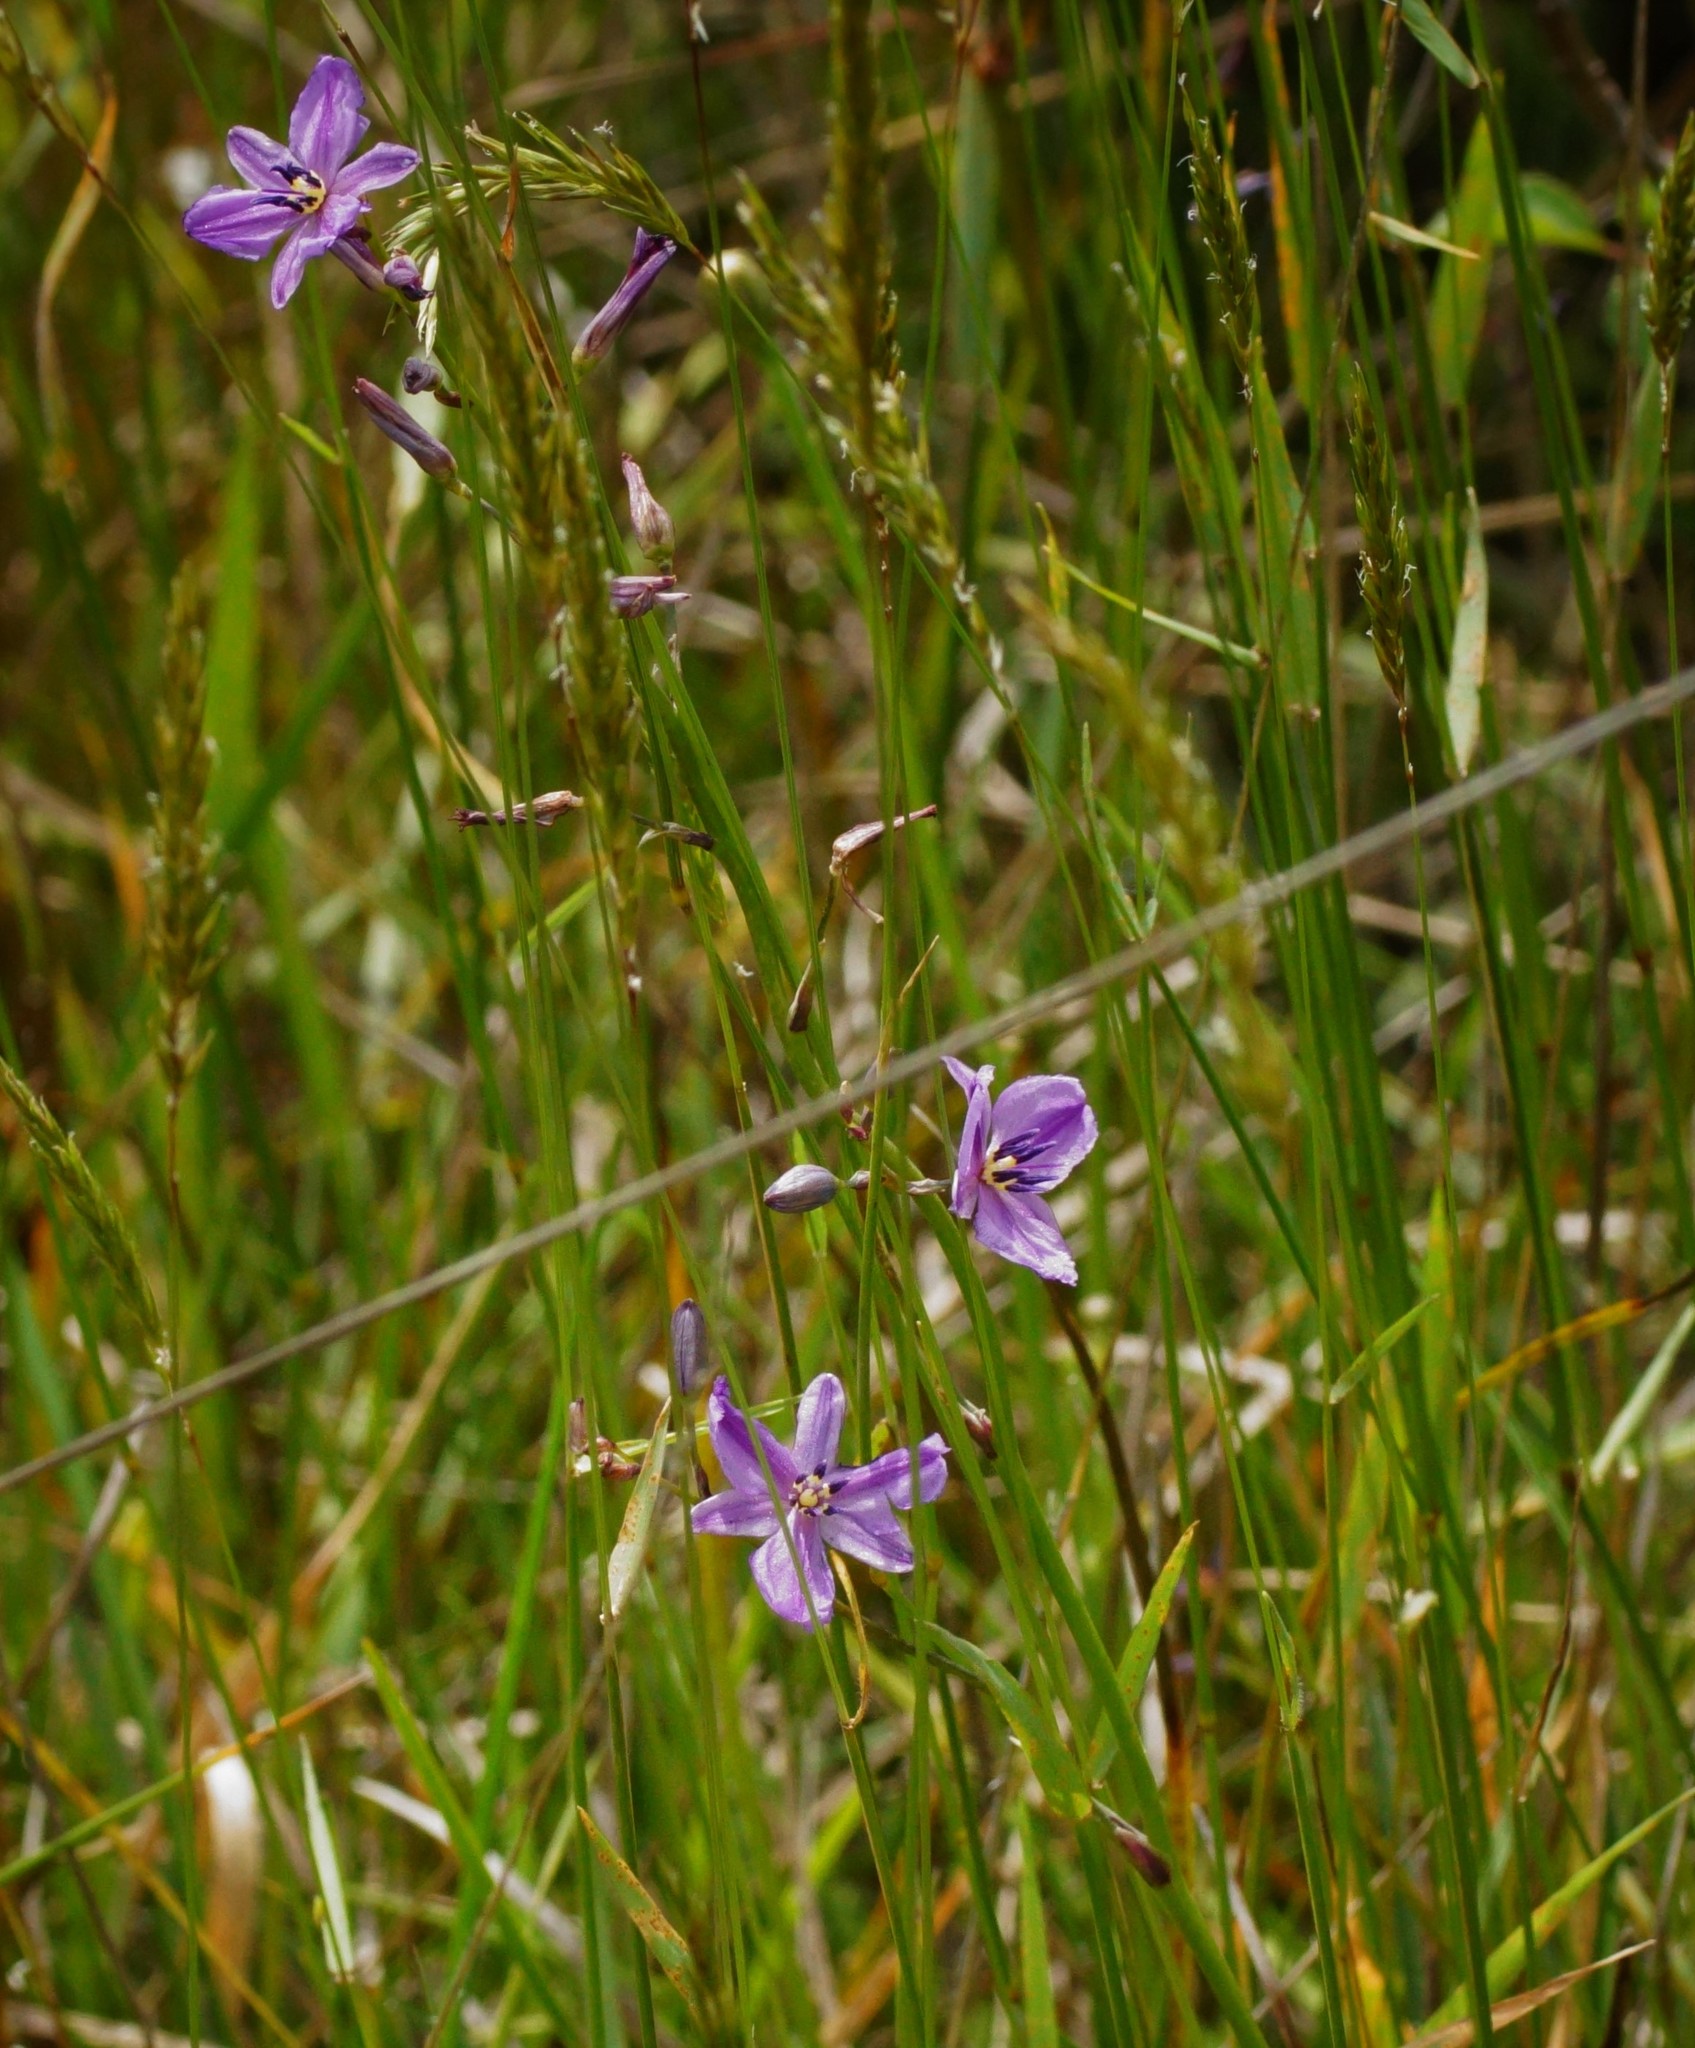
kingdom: Plantae
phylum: Tracheophyta
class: Liliopsida
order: Asparagales
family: Asparagaceae
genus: Arthropodium
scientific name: Arthropodium strictum
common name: Chocolate-lily
